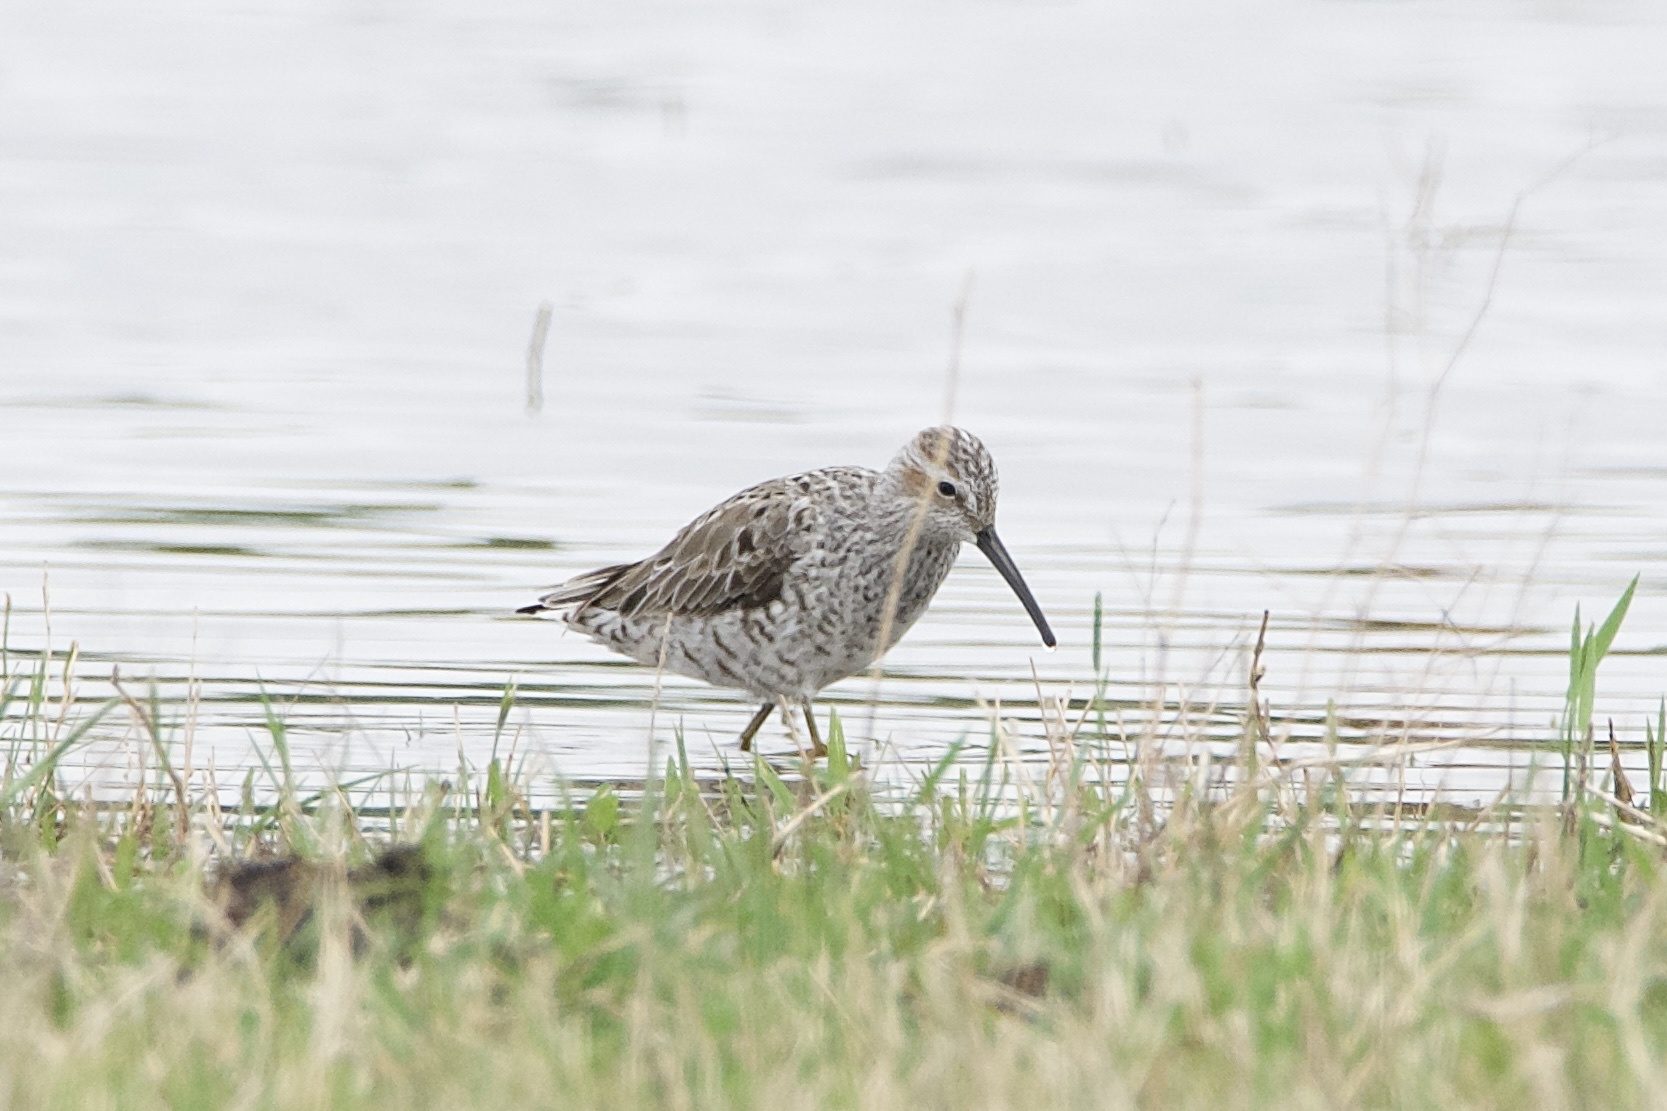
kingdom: Animalia
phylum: Chordata
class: Aves
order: Charadriiformes
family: Scolopacidae
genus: Calidris
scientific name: Calidris himantopus
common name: Stilt sandpiper
